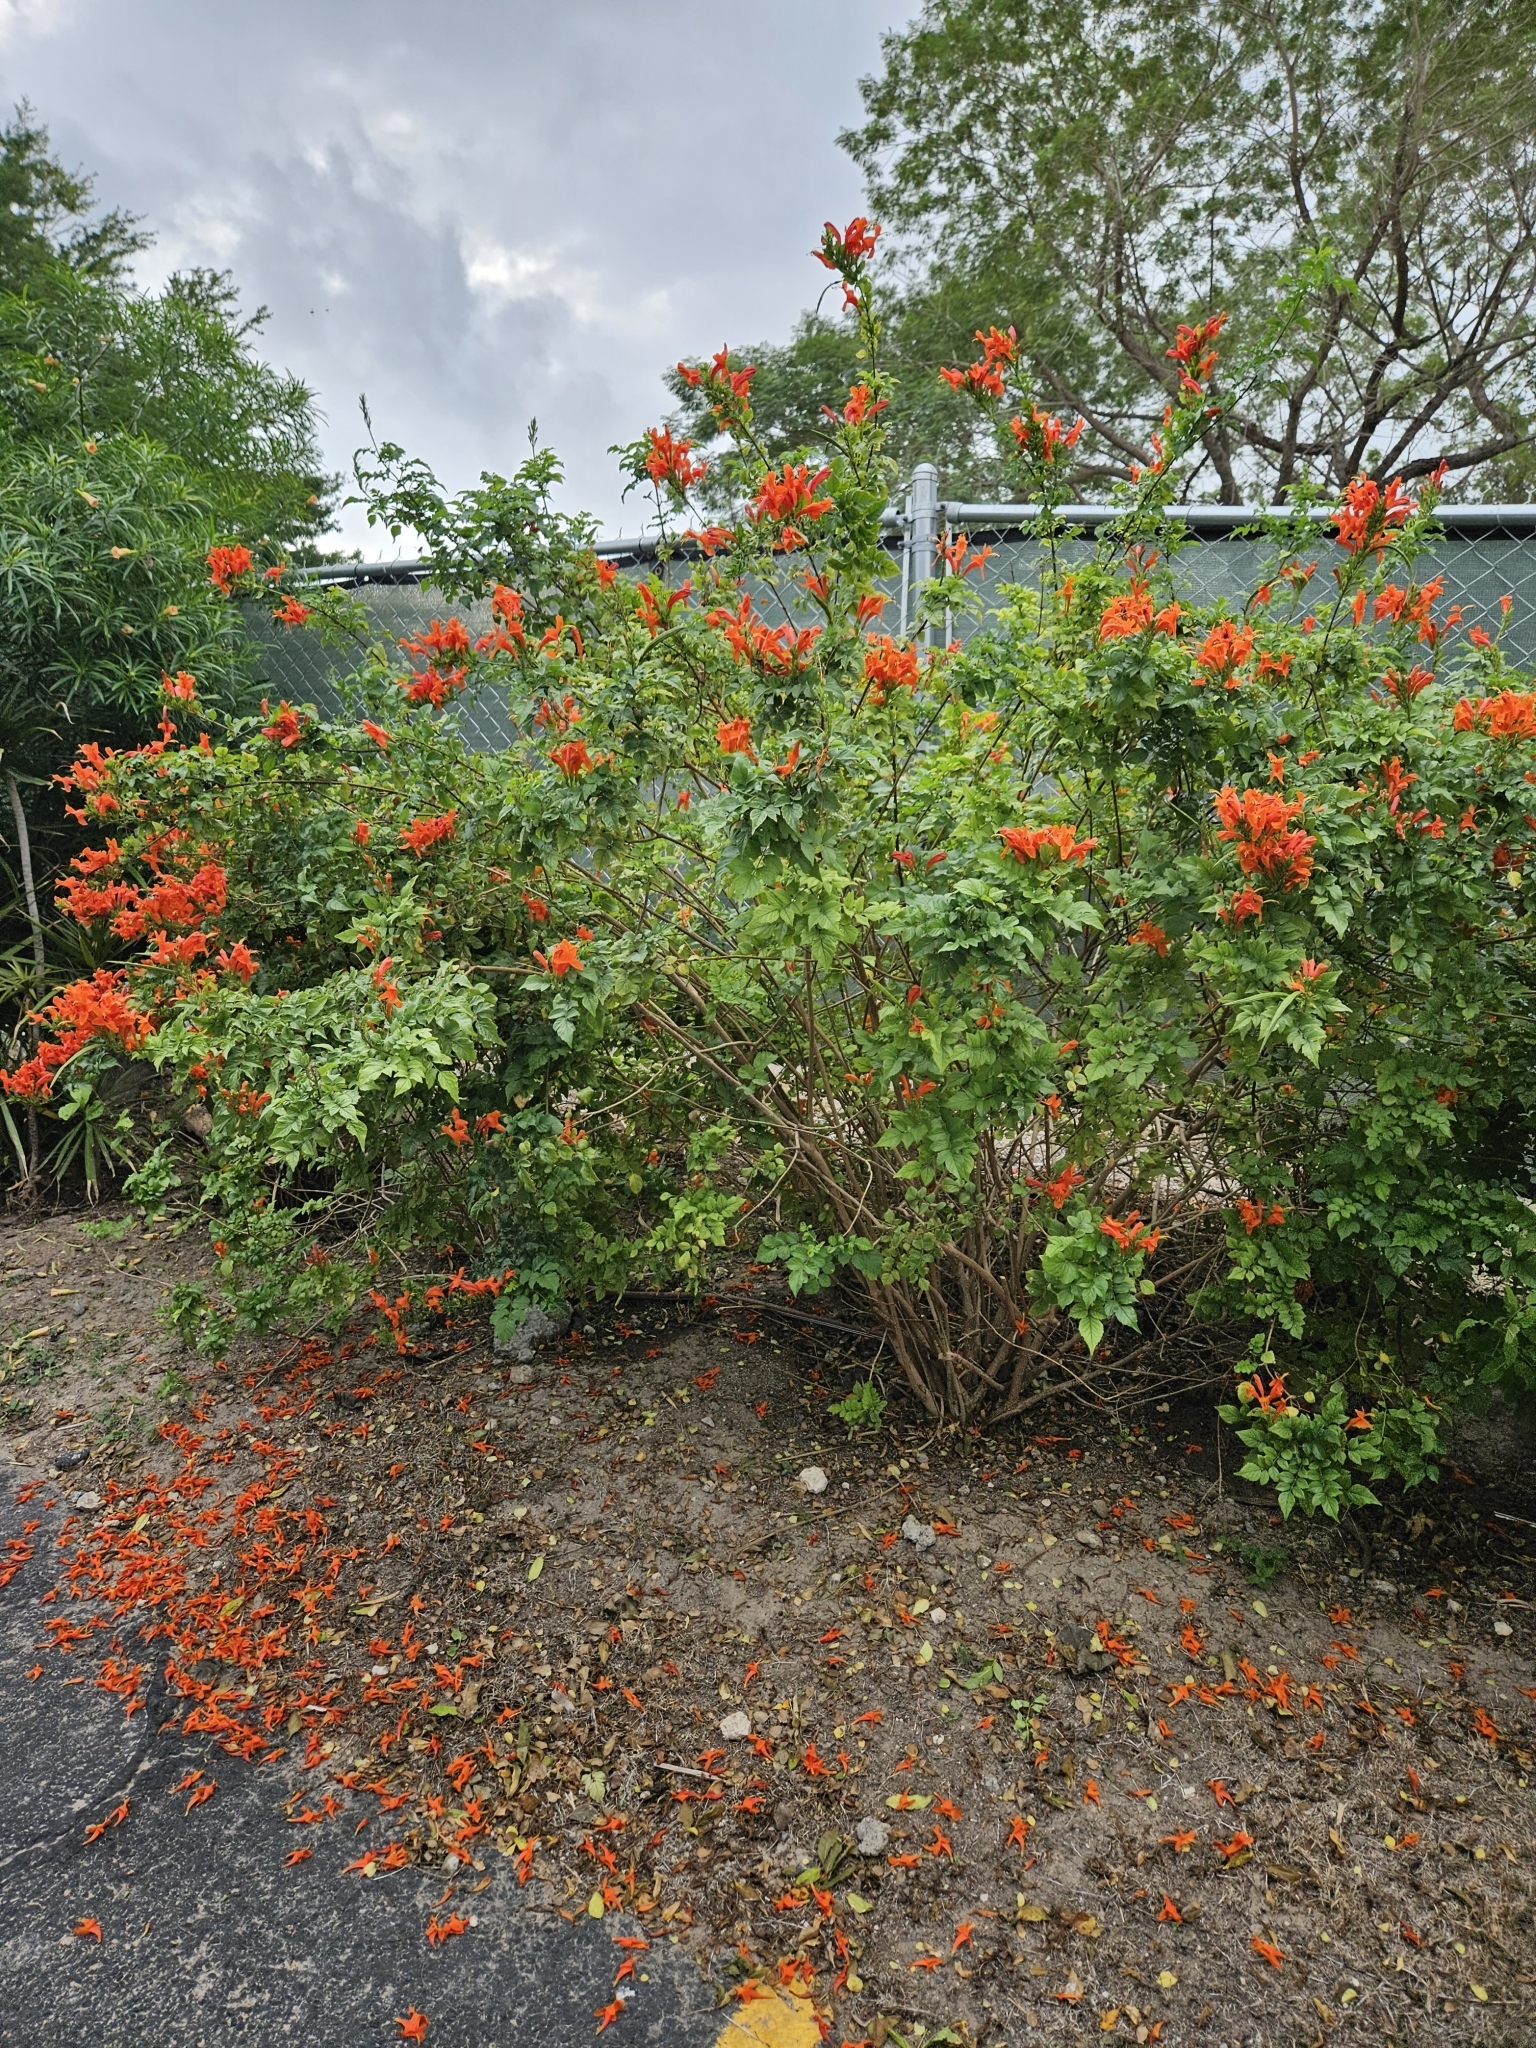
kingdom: Plantae
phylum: Tracheophyta
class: Magnoliopsida
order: Lamiales
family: Bignoniaceae
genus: Tecomaria
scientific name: Tecomaria capensis
